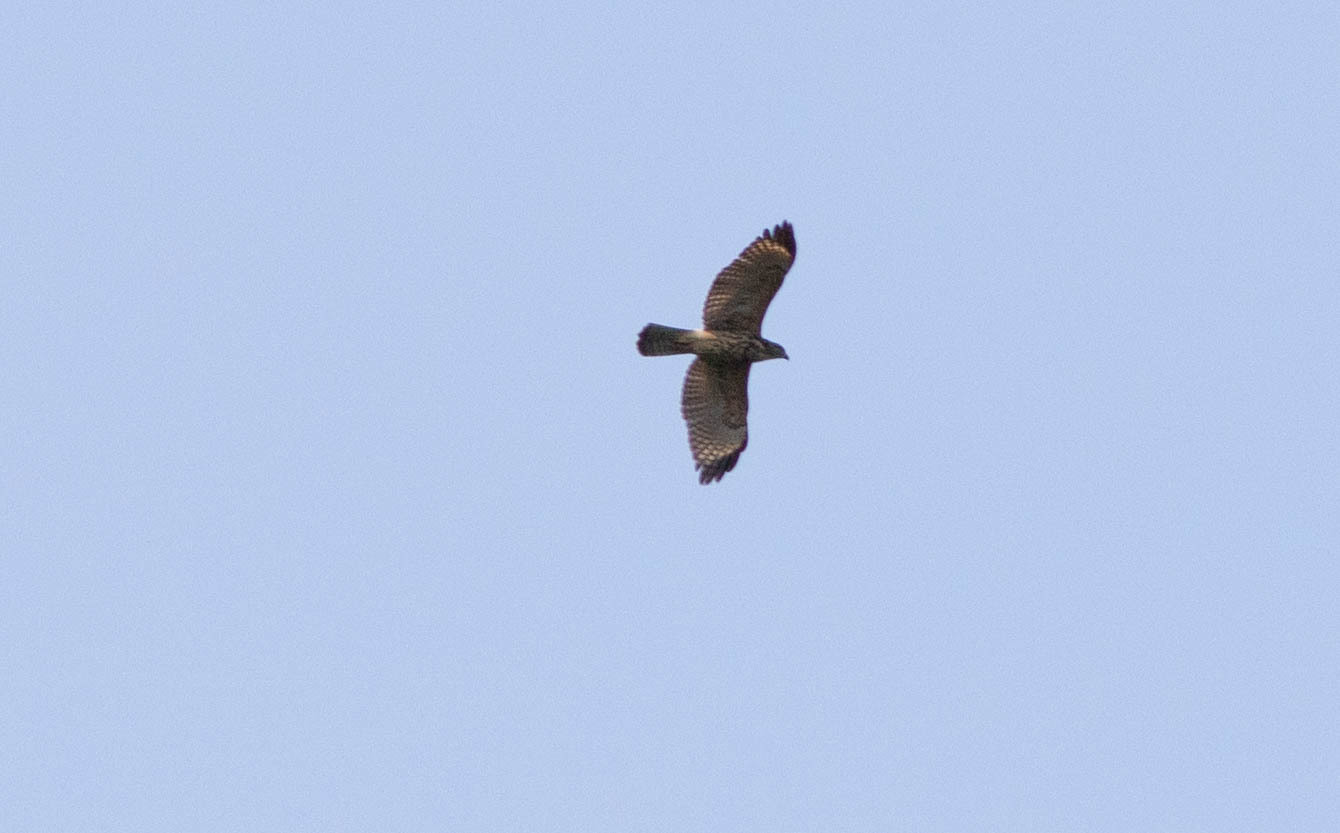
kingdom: Animalia
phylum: Chordata
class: Aves
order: Accipitriformes
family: Accipitridae
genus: Buteo
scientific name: Buteo lineatus
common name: Red-shouldered hawk
